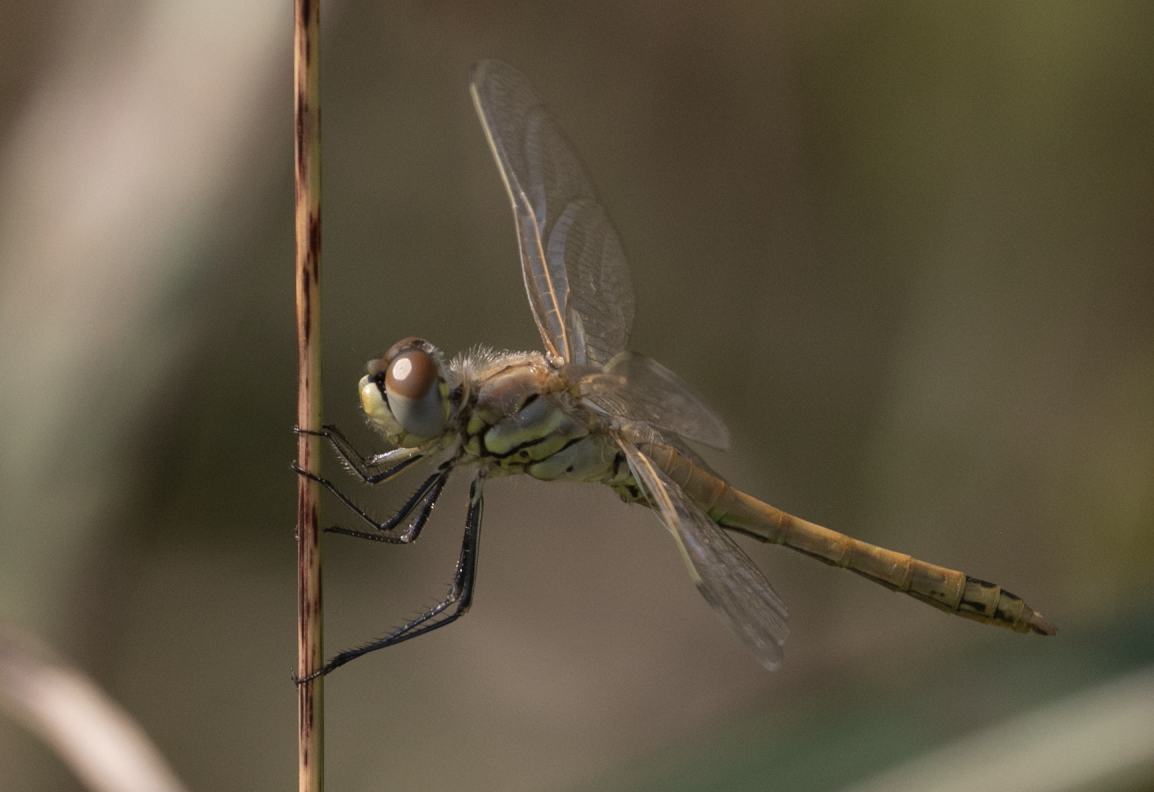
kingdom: Animalia
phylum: Arthropoda
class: Insecta
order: Odonata
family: Libellulidae
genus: Sympetrum
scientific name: Sympetrum fonscolombii
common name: Red-veined darter
